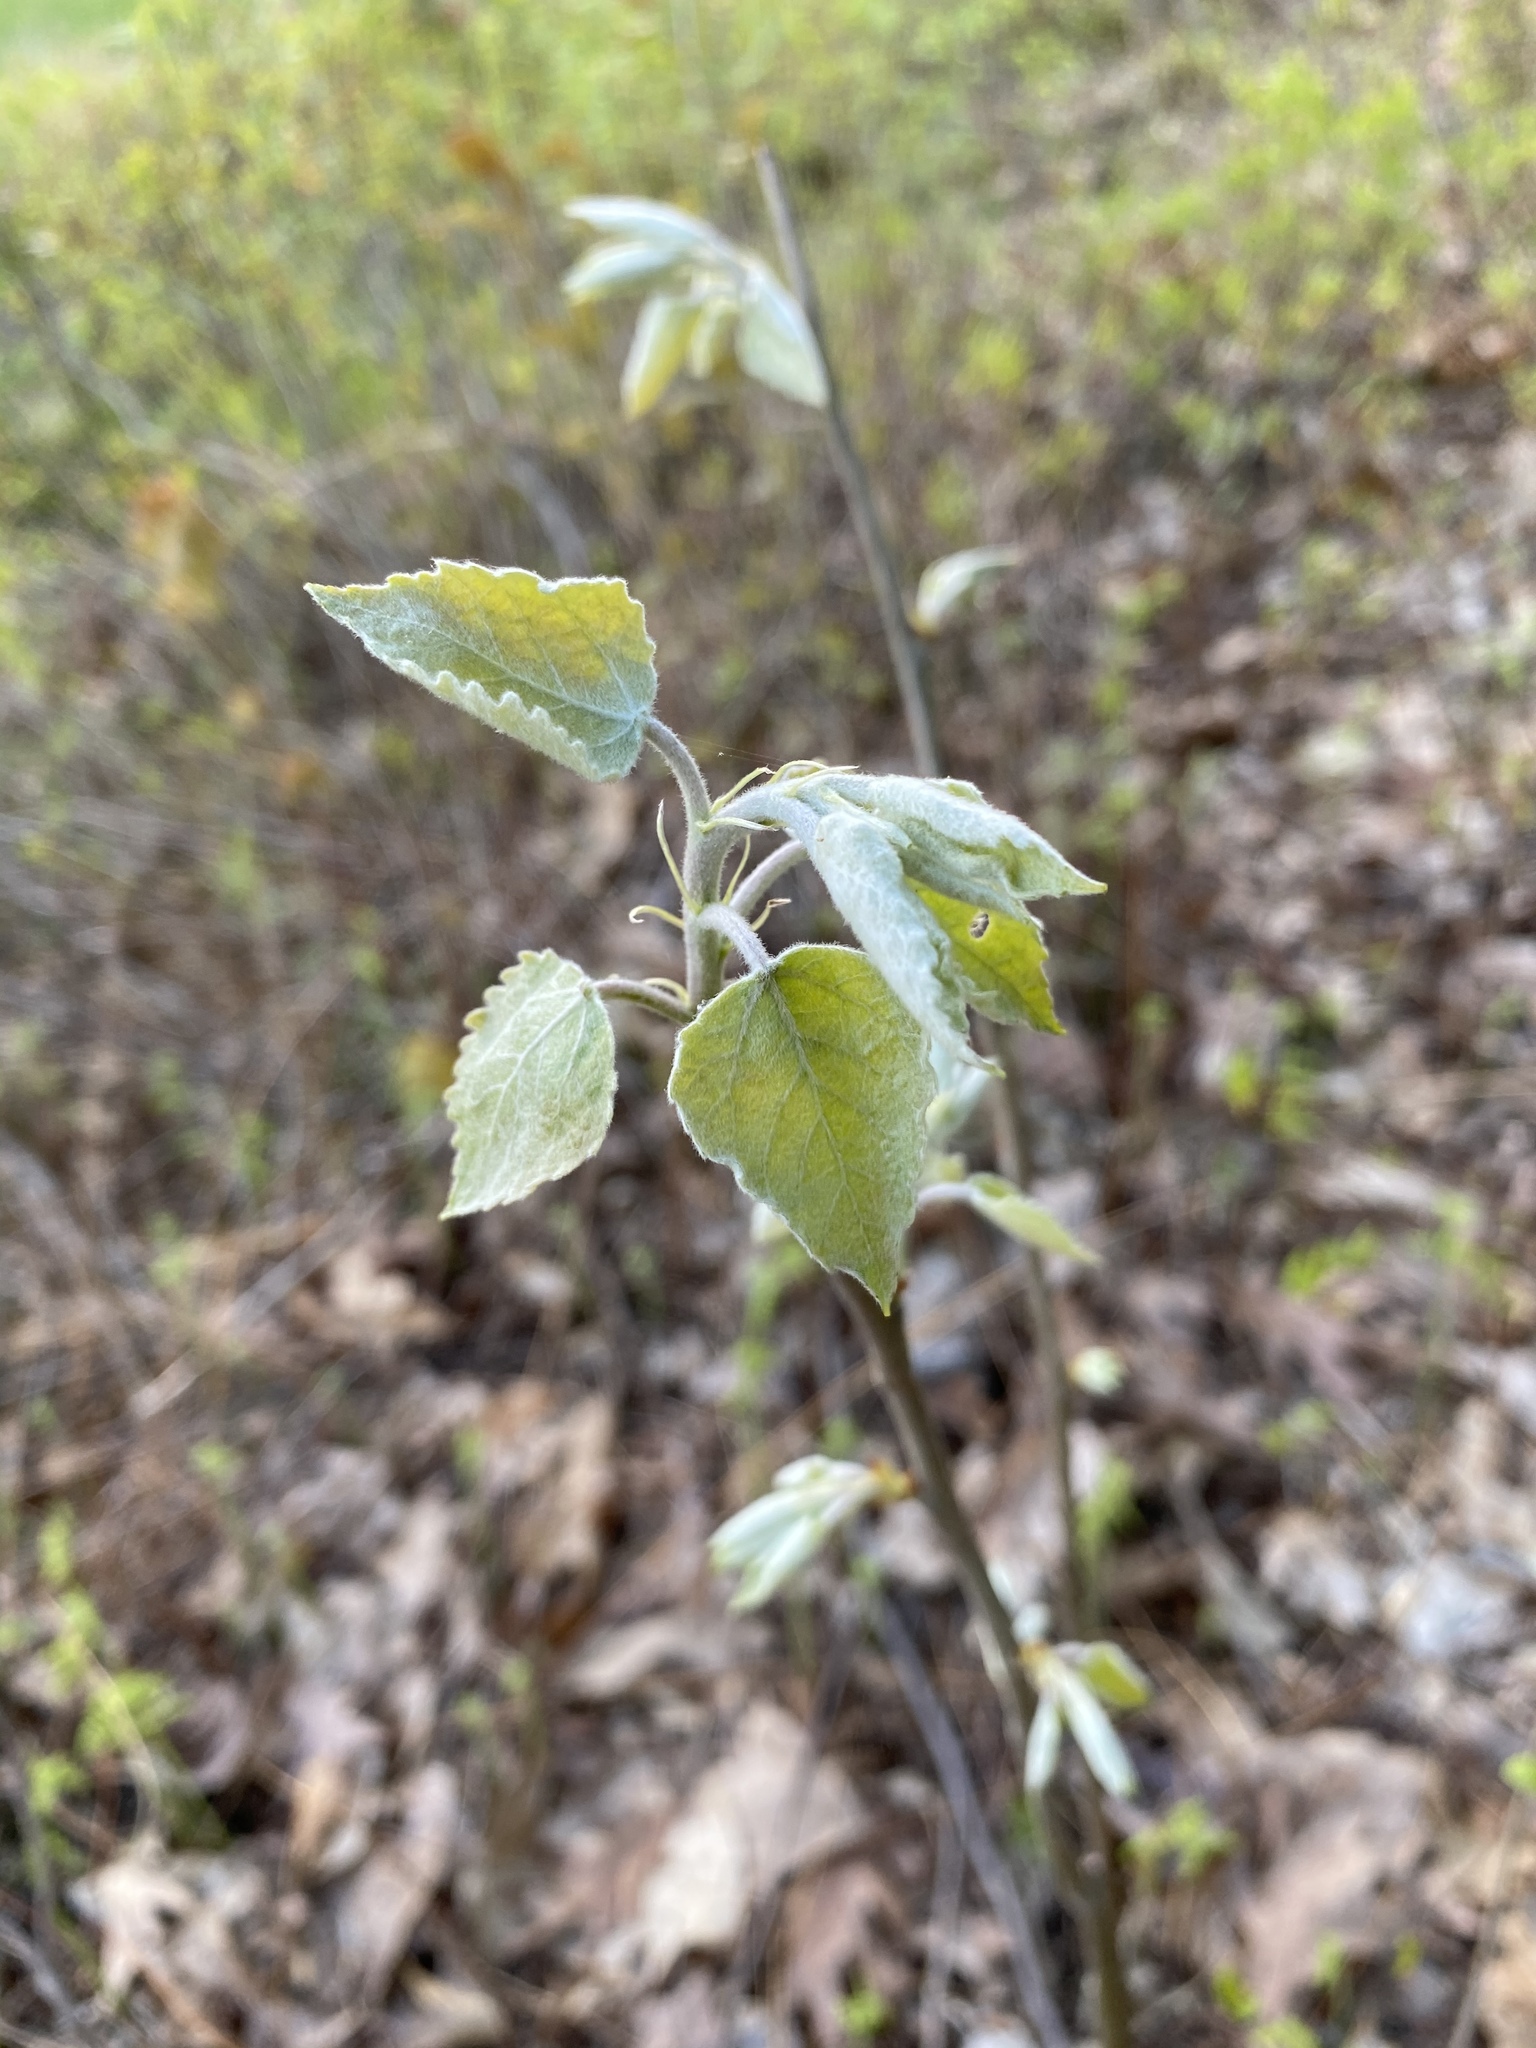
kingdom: Plantae
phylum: Tracheophyta
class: Magnoliopsida
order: Malpighiales
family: Salicaceae
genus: Populus
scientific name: Populus grandidentata
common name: Bigtooth aspen
